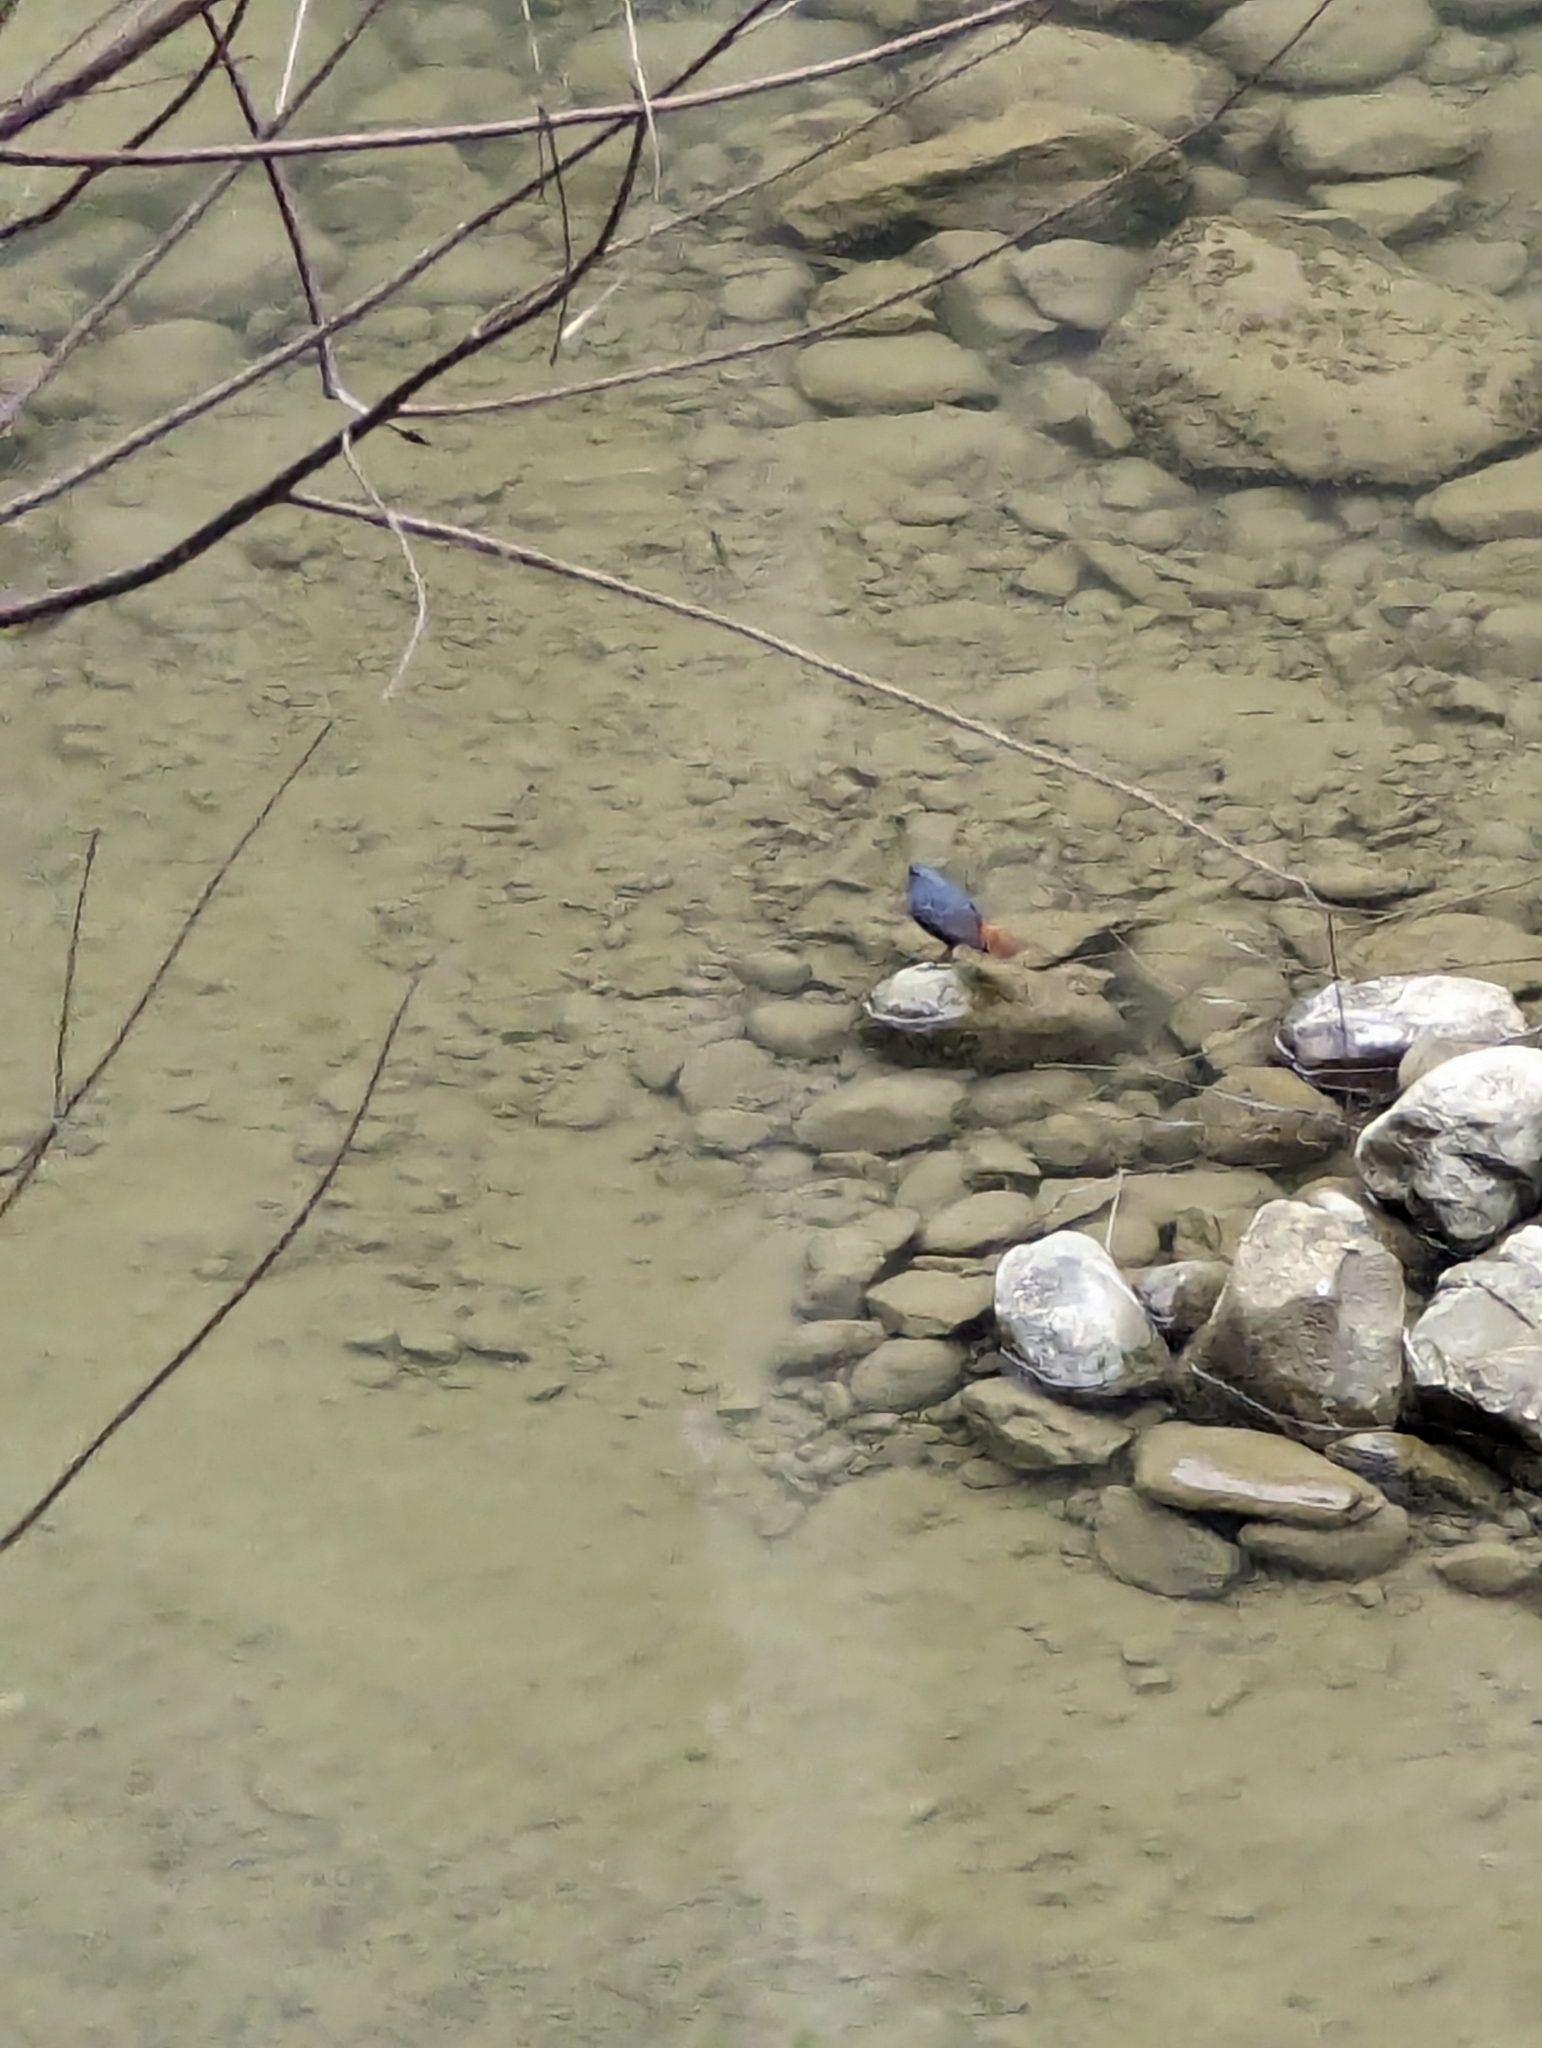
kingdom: Animalia
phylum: Chordata
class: Aves
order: Passeriformes
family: Muscicapidae
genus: Rhyacornis
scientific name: Rhyacornis fuliginosa
